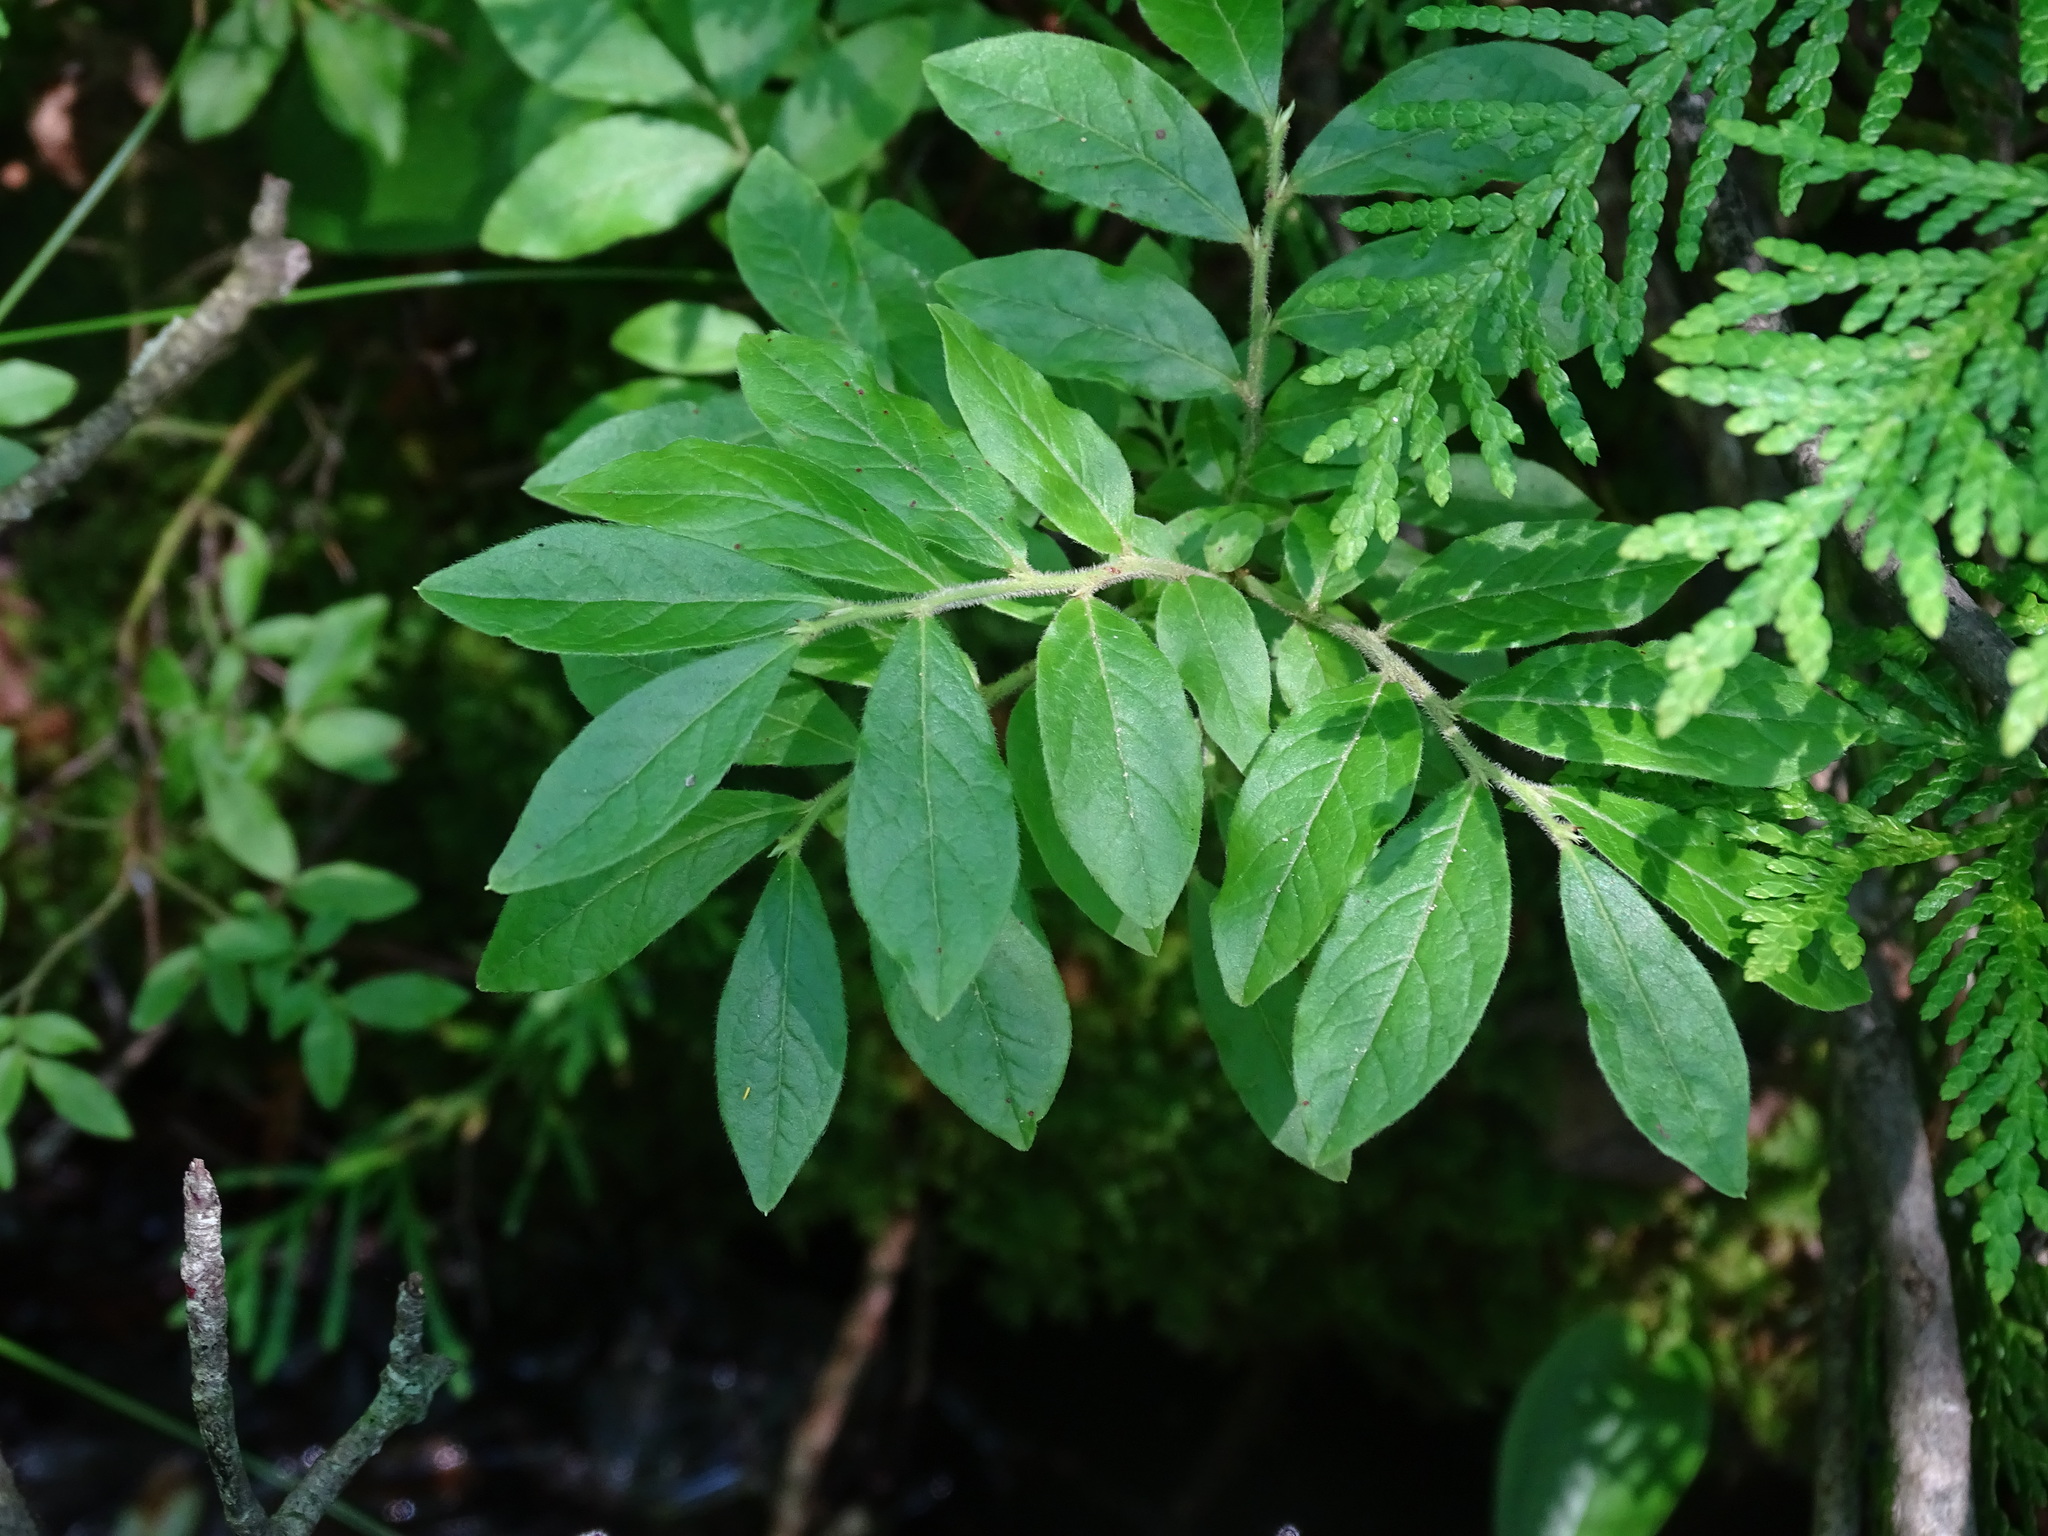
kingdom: Plantae
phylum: Tracheophyta
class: Magnoliopsida
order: Ericales
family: Ericaceae
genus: Vaccinium
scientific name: Vaccinium myrtilloides
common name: Canada blueberry
